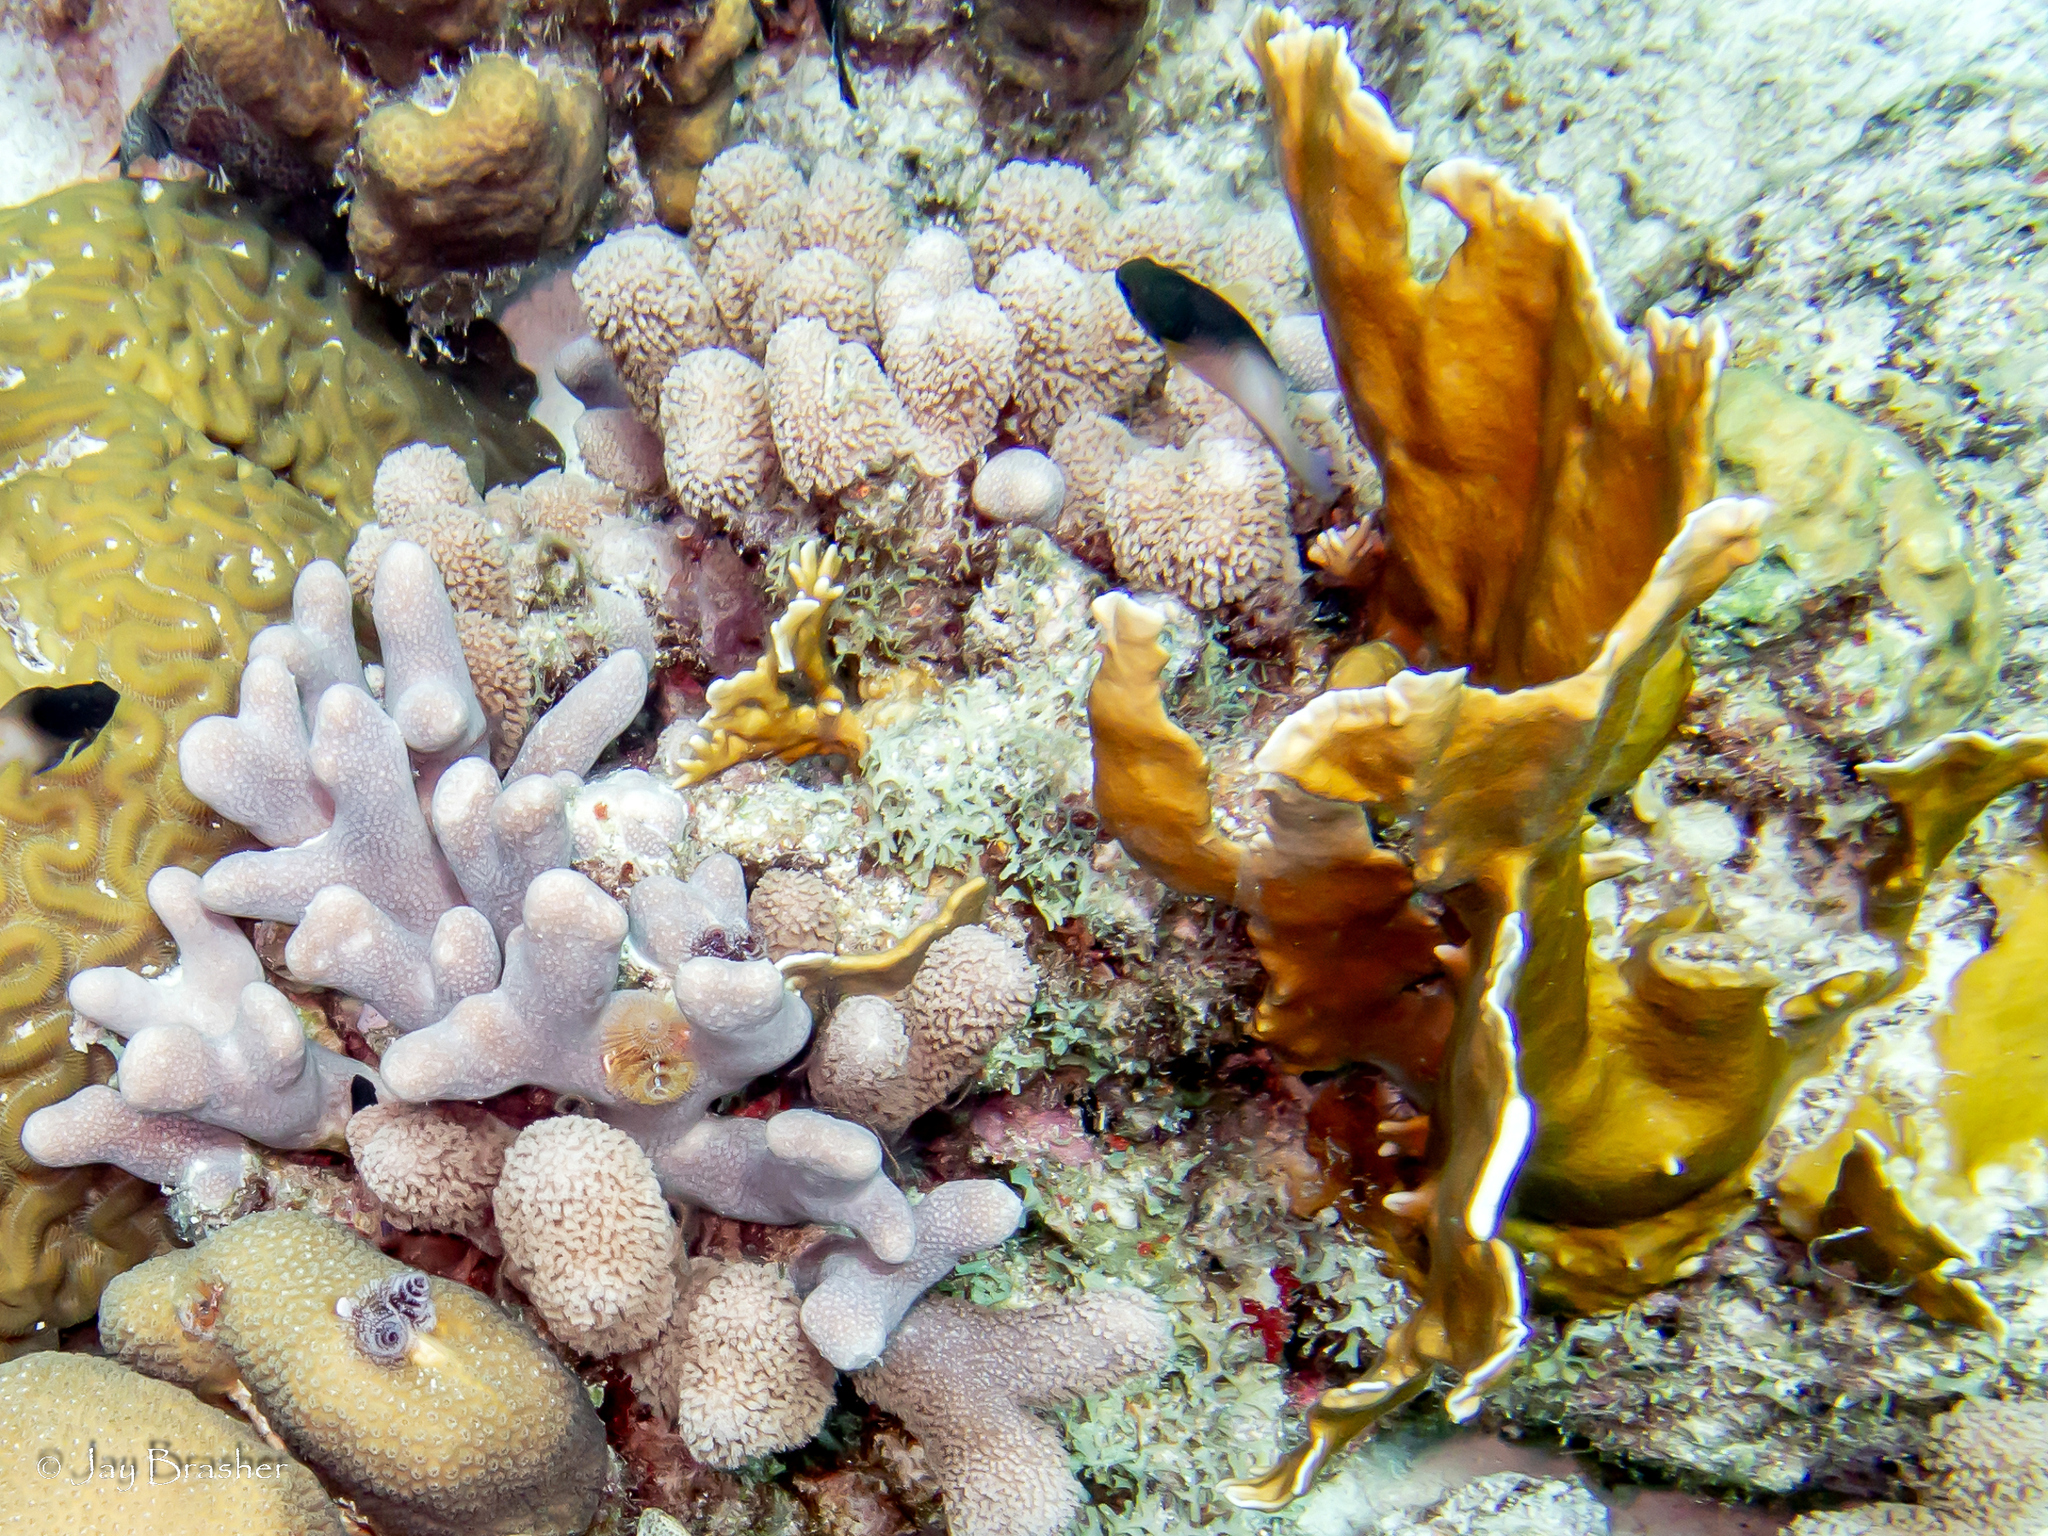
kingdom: Animalia
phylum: Cnidaria
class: Hydrozoa
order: Anthoathecata
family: Milleporidae
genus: Millepora
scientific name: Millepora complanata
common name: Bladed fire coral
